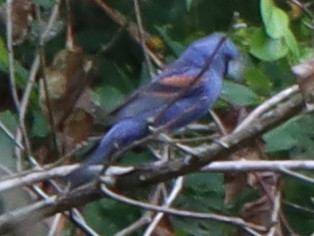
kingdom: Animalia
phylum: Chordata
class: Aves
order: Passeriformes
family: Cardinalidae
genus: Passerina
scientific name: Passerina caerulea
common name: Blue grosbeak
